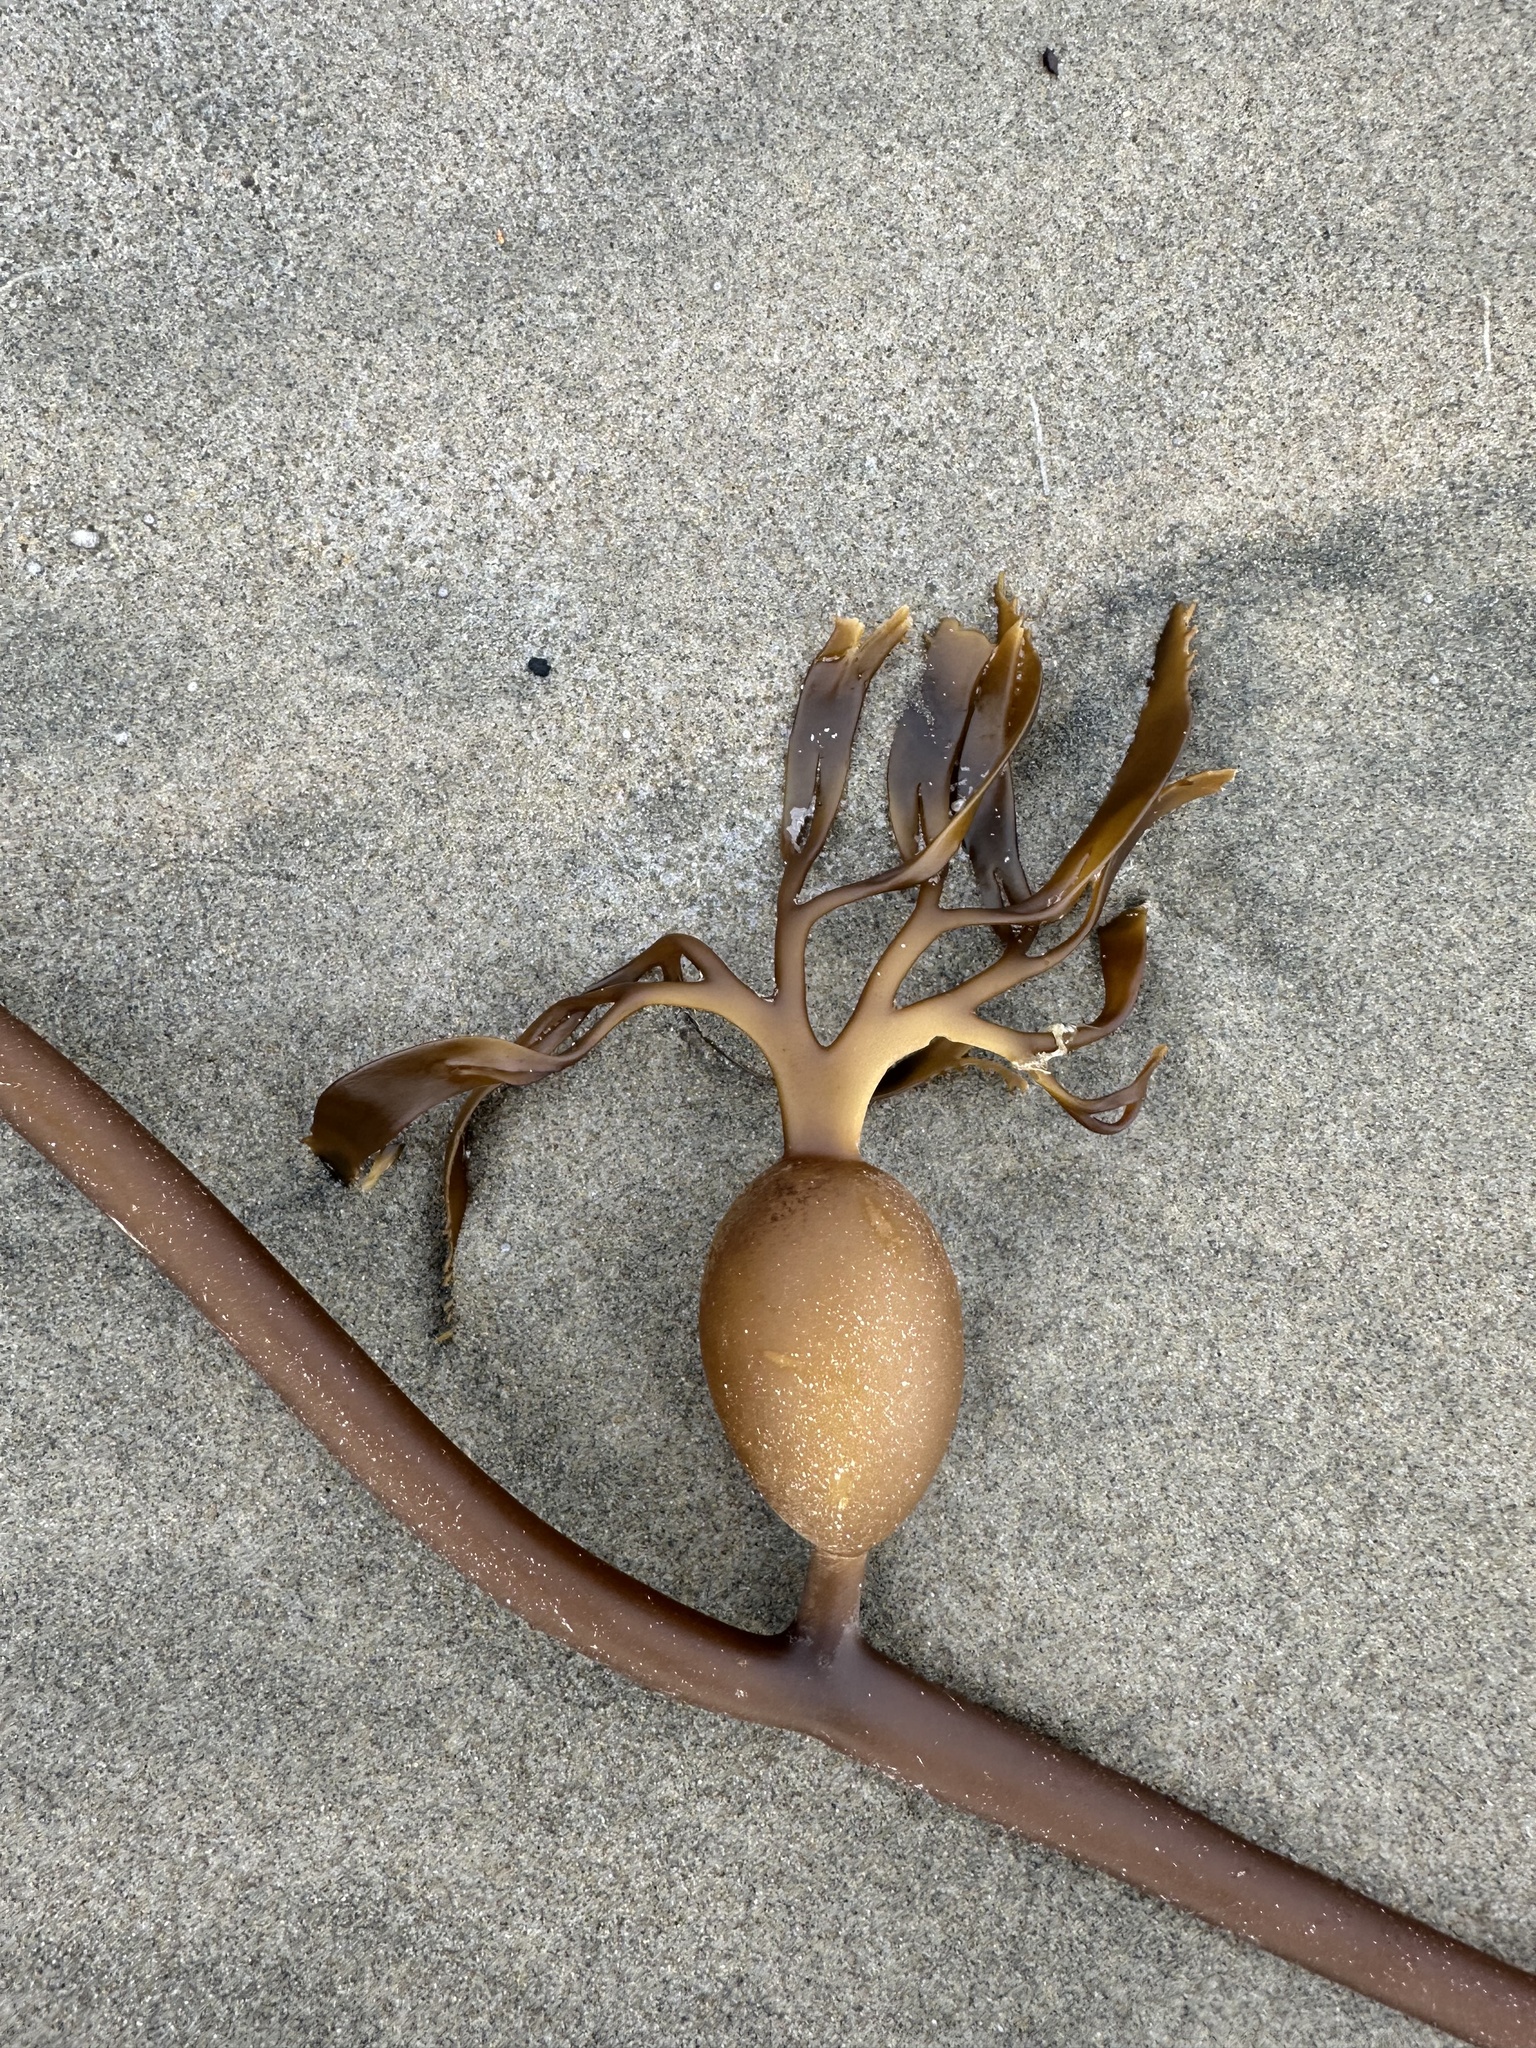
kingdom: Chromista
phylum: Ochrophyta
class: Phaeophyceae
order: Laminariales
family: Laminariaceae
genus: Macrocystis
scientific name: Macrocystis pyrifera
